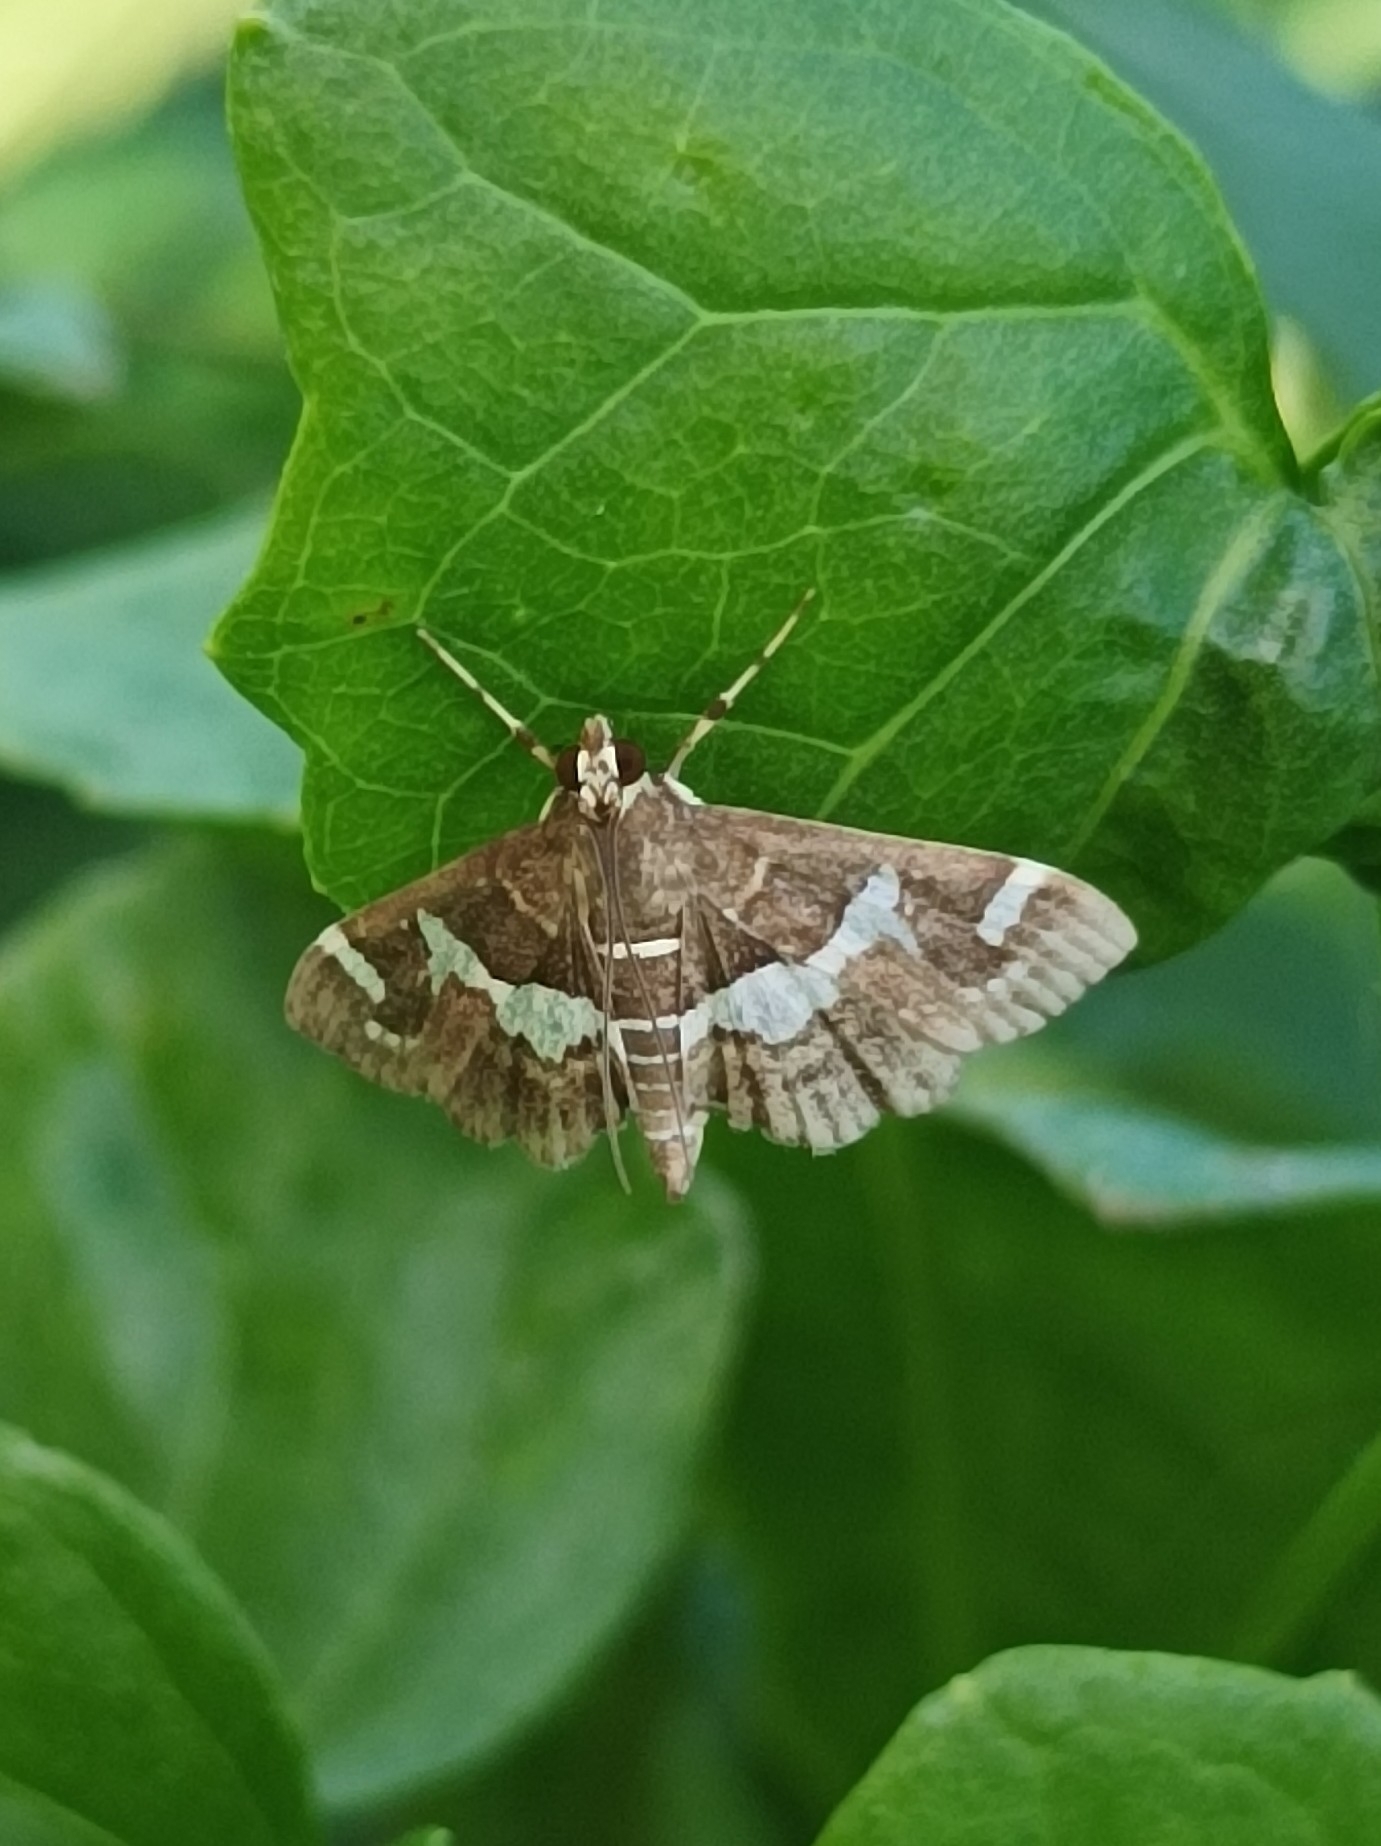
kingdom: Animalia
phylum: Arthropoda
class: Insecta
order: Lepidoptera
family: Crambidae
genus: Spoladea
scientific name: Spoladea recurvalis
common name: Beet webworm moth
